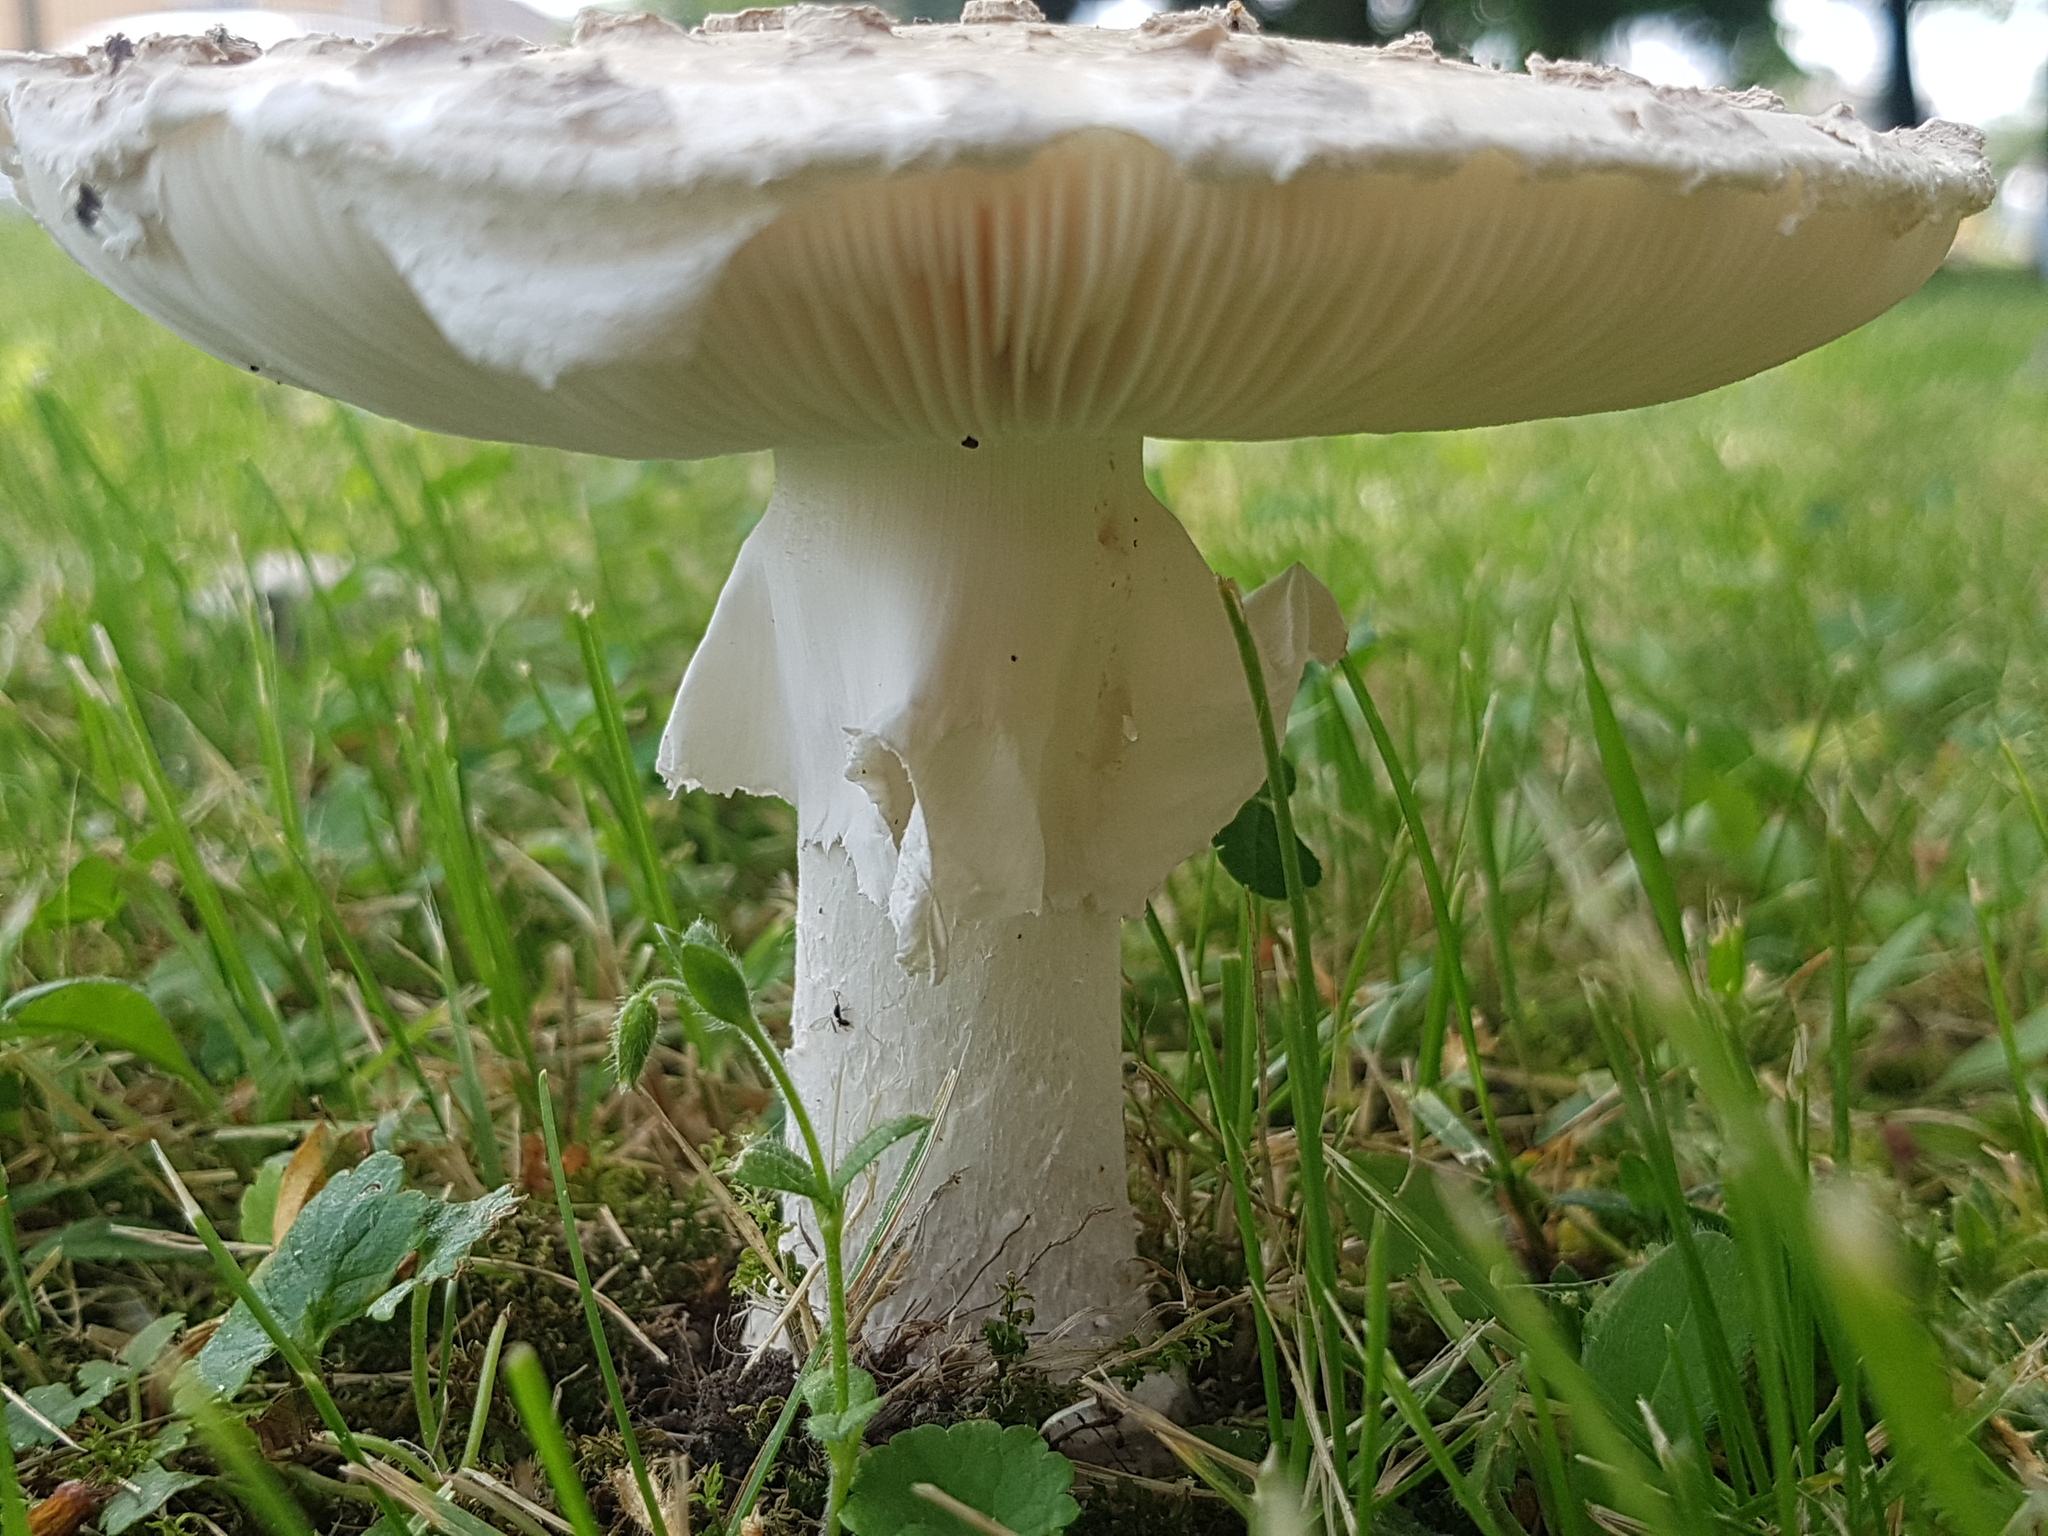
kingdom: Fungi
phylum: Basidiomycota
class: Agaricomycetes
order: Agaricales
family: Amanitaceae
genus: Amanita
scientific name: Amanita strobiliformis
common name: Warted amanita
